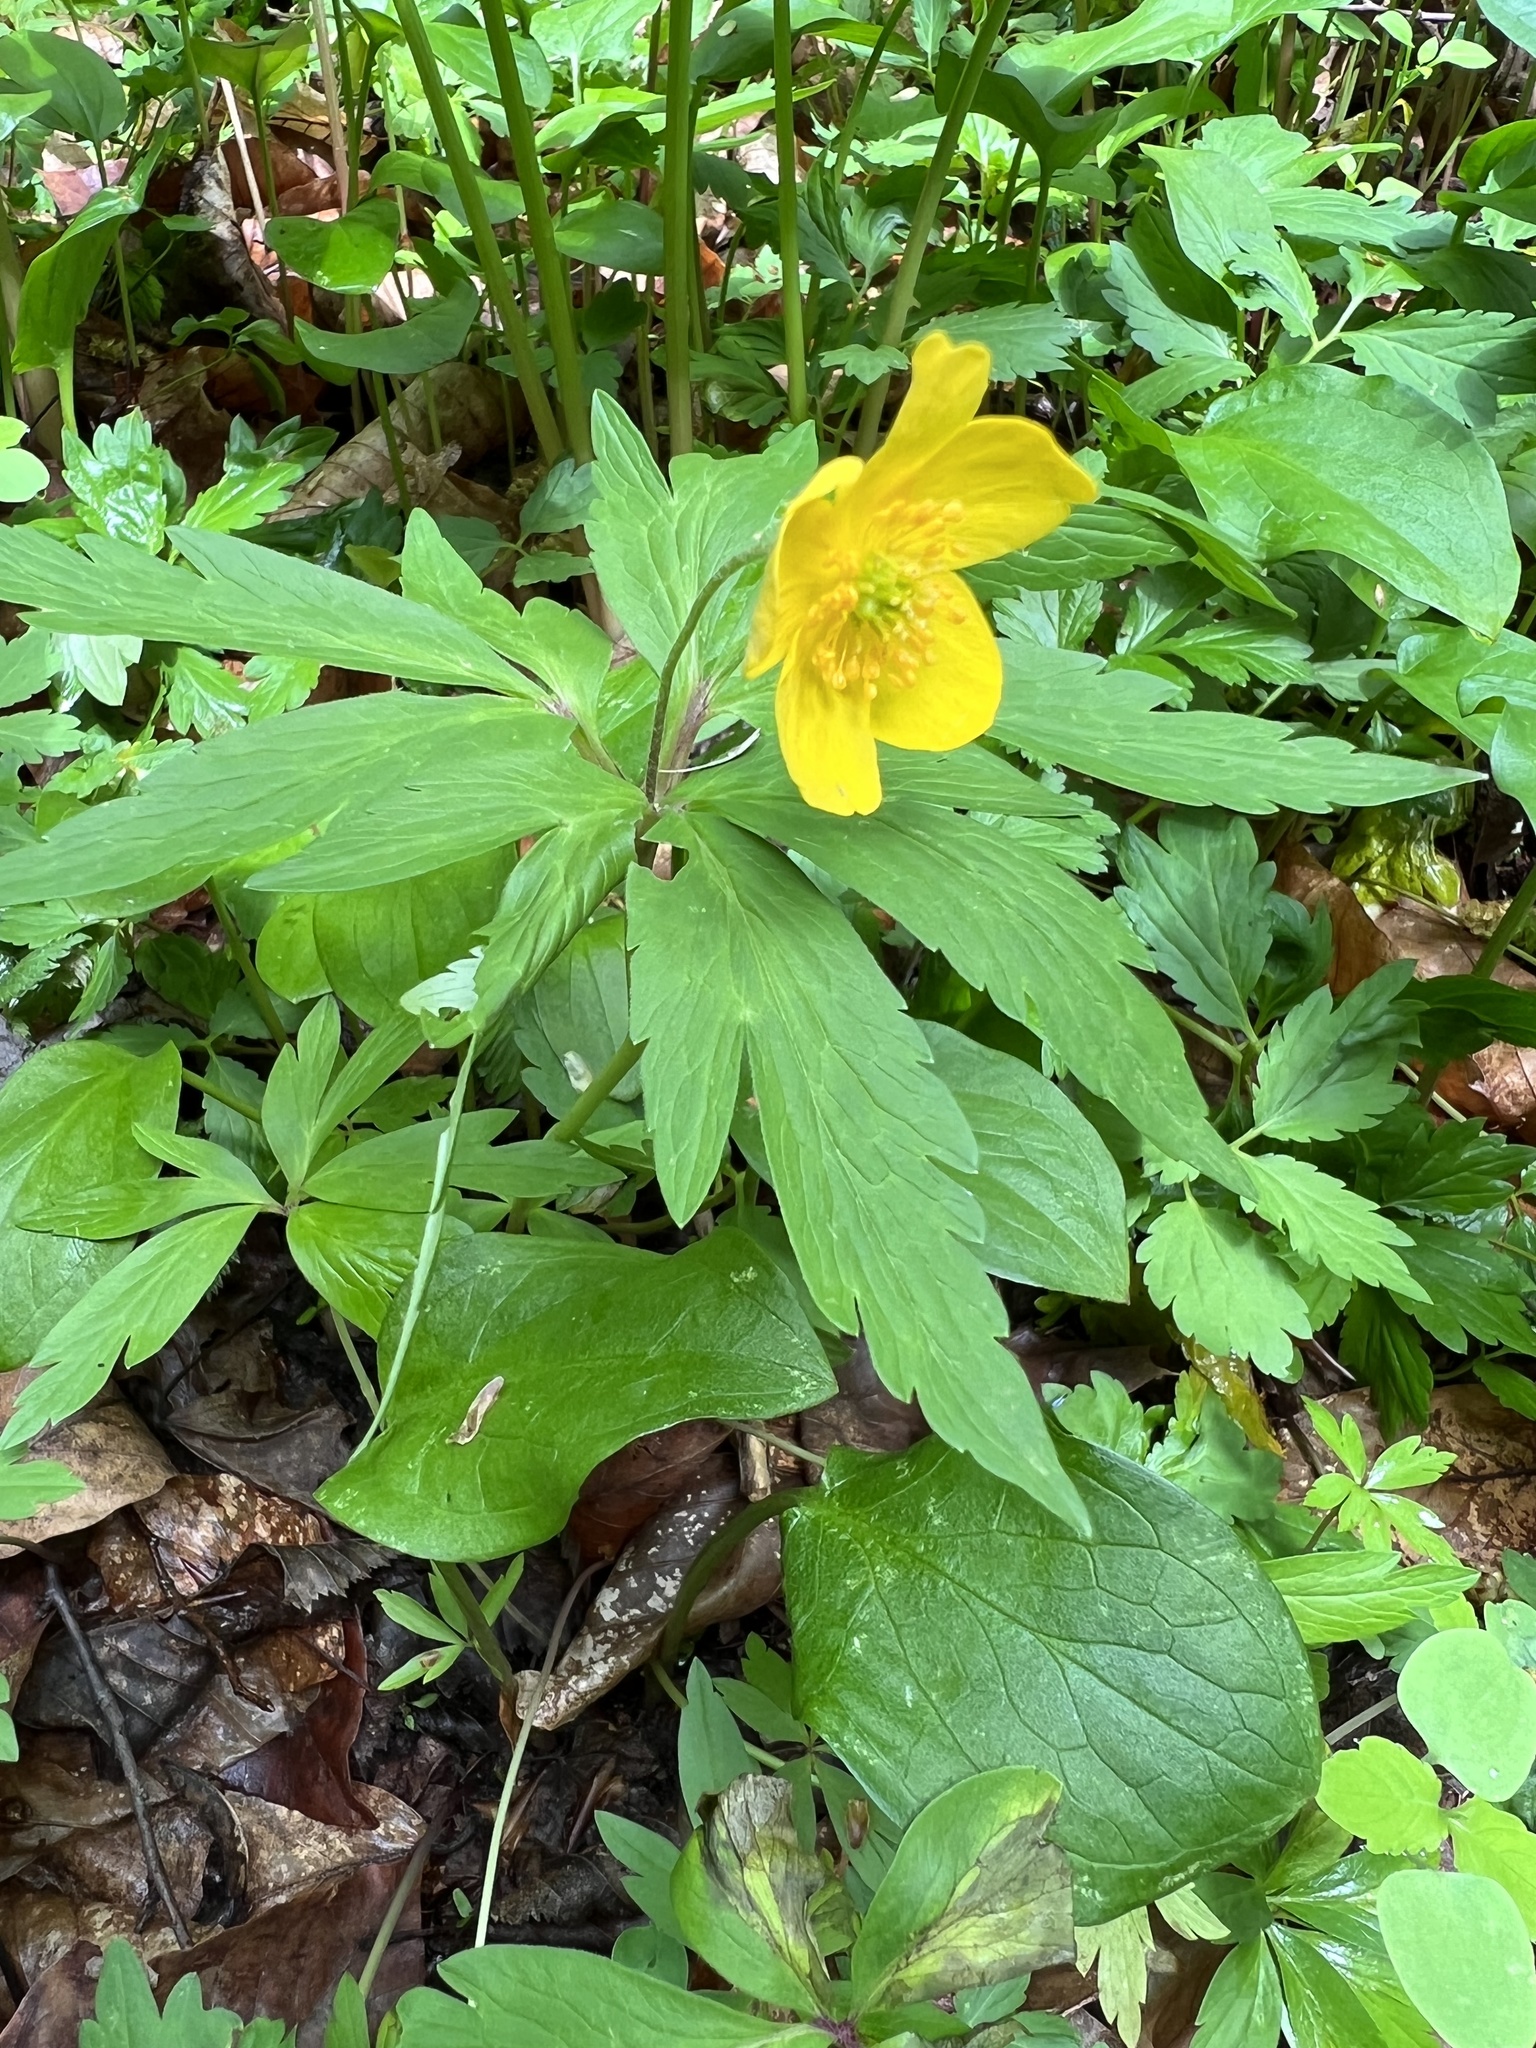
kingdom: Plantae
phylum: Tracheophyta
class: Magnoliopsida
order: Ranunculales
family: Ranunculaceae
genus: Anemone
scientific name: Anemone ranunculoides
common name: Yellow anemone
